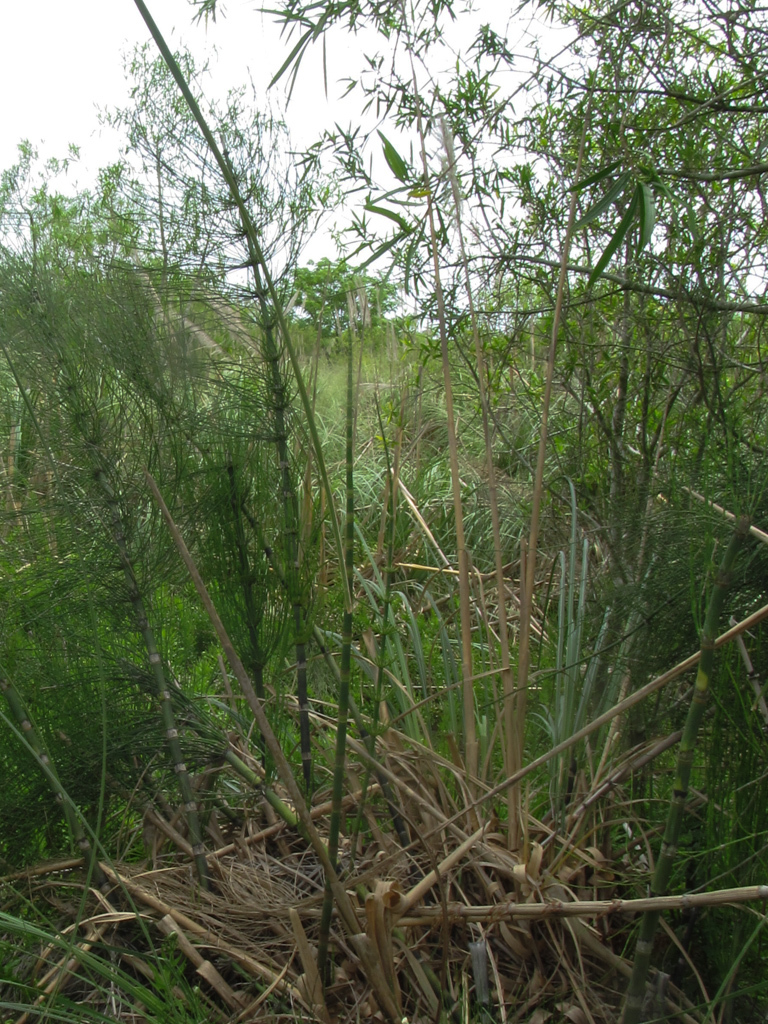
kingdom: Plantae
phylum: Tracheophyta
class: Polypodiopsida
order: Equisetales
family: Equisetaceae
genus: Equisetum
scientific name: Equisetum giganteum
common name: Giant horsetail
